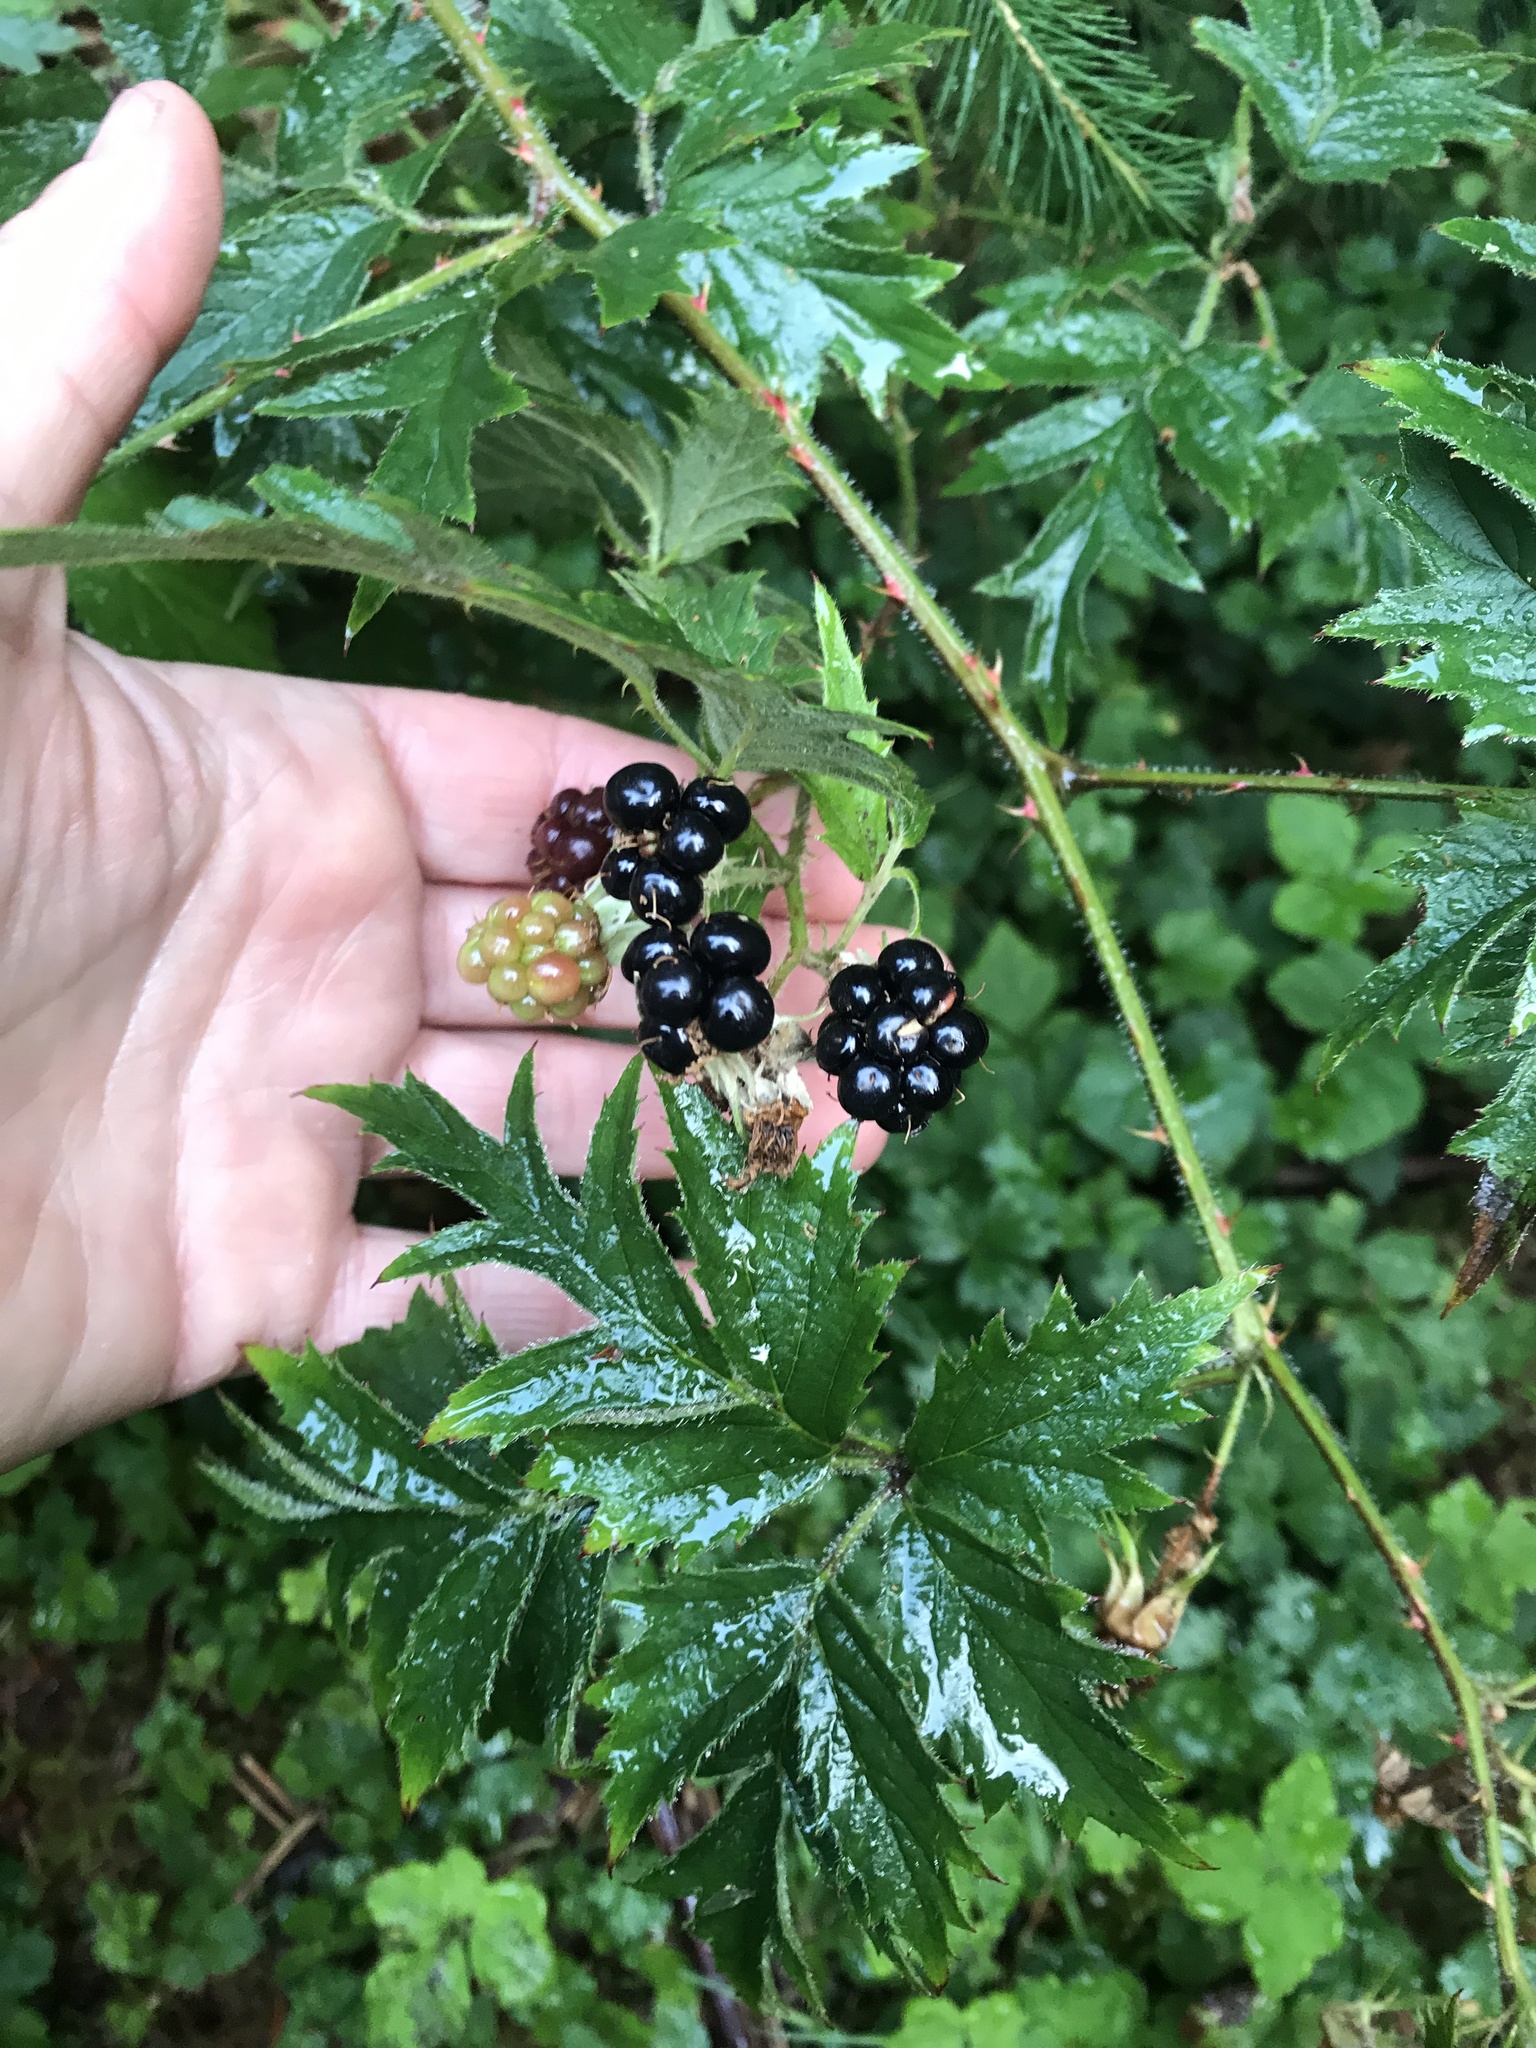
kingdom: Plantae
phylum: Tracheophyta
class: Magnoliopsida
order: Rosales
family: Rosaceae
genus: Rubus
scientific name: Rubus laciniatus
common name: Evergreen blackberry
